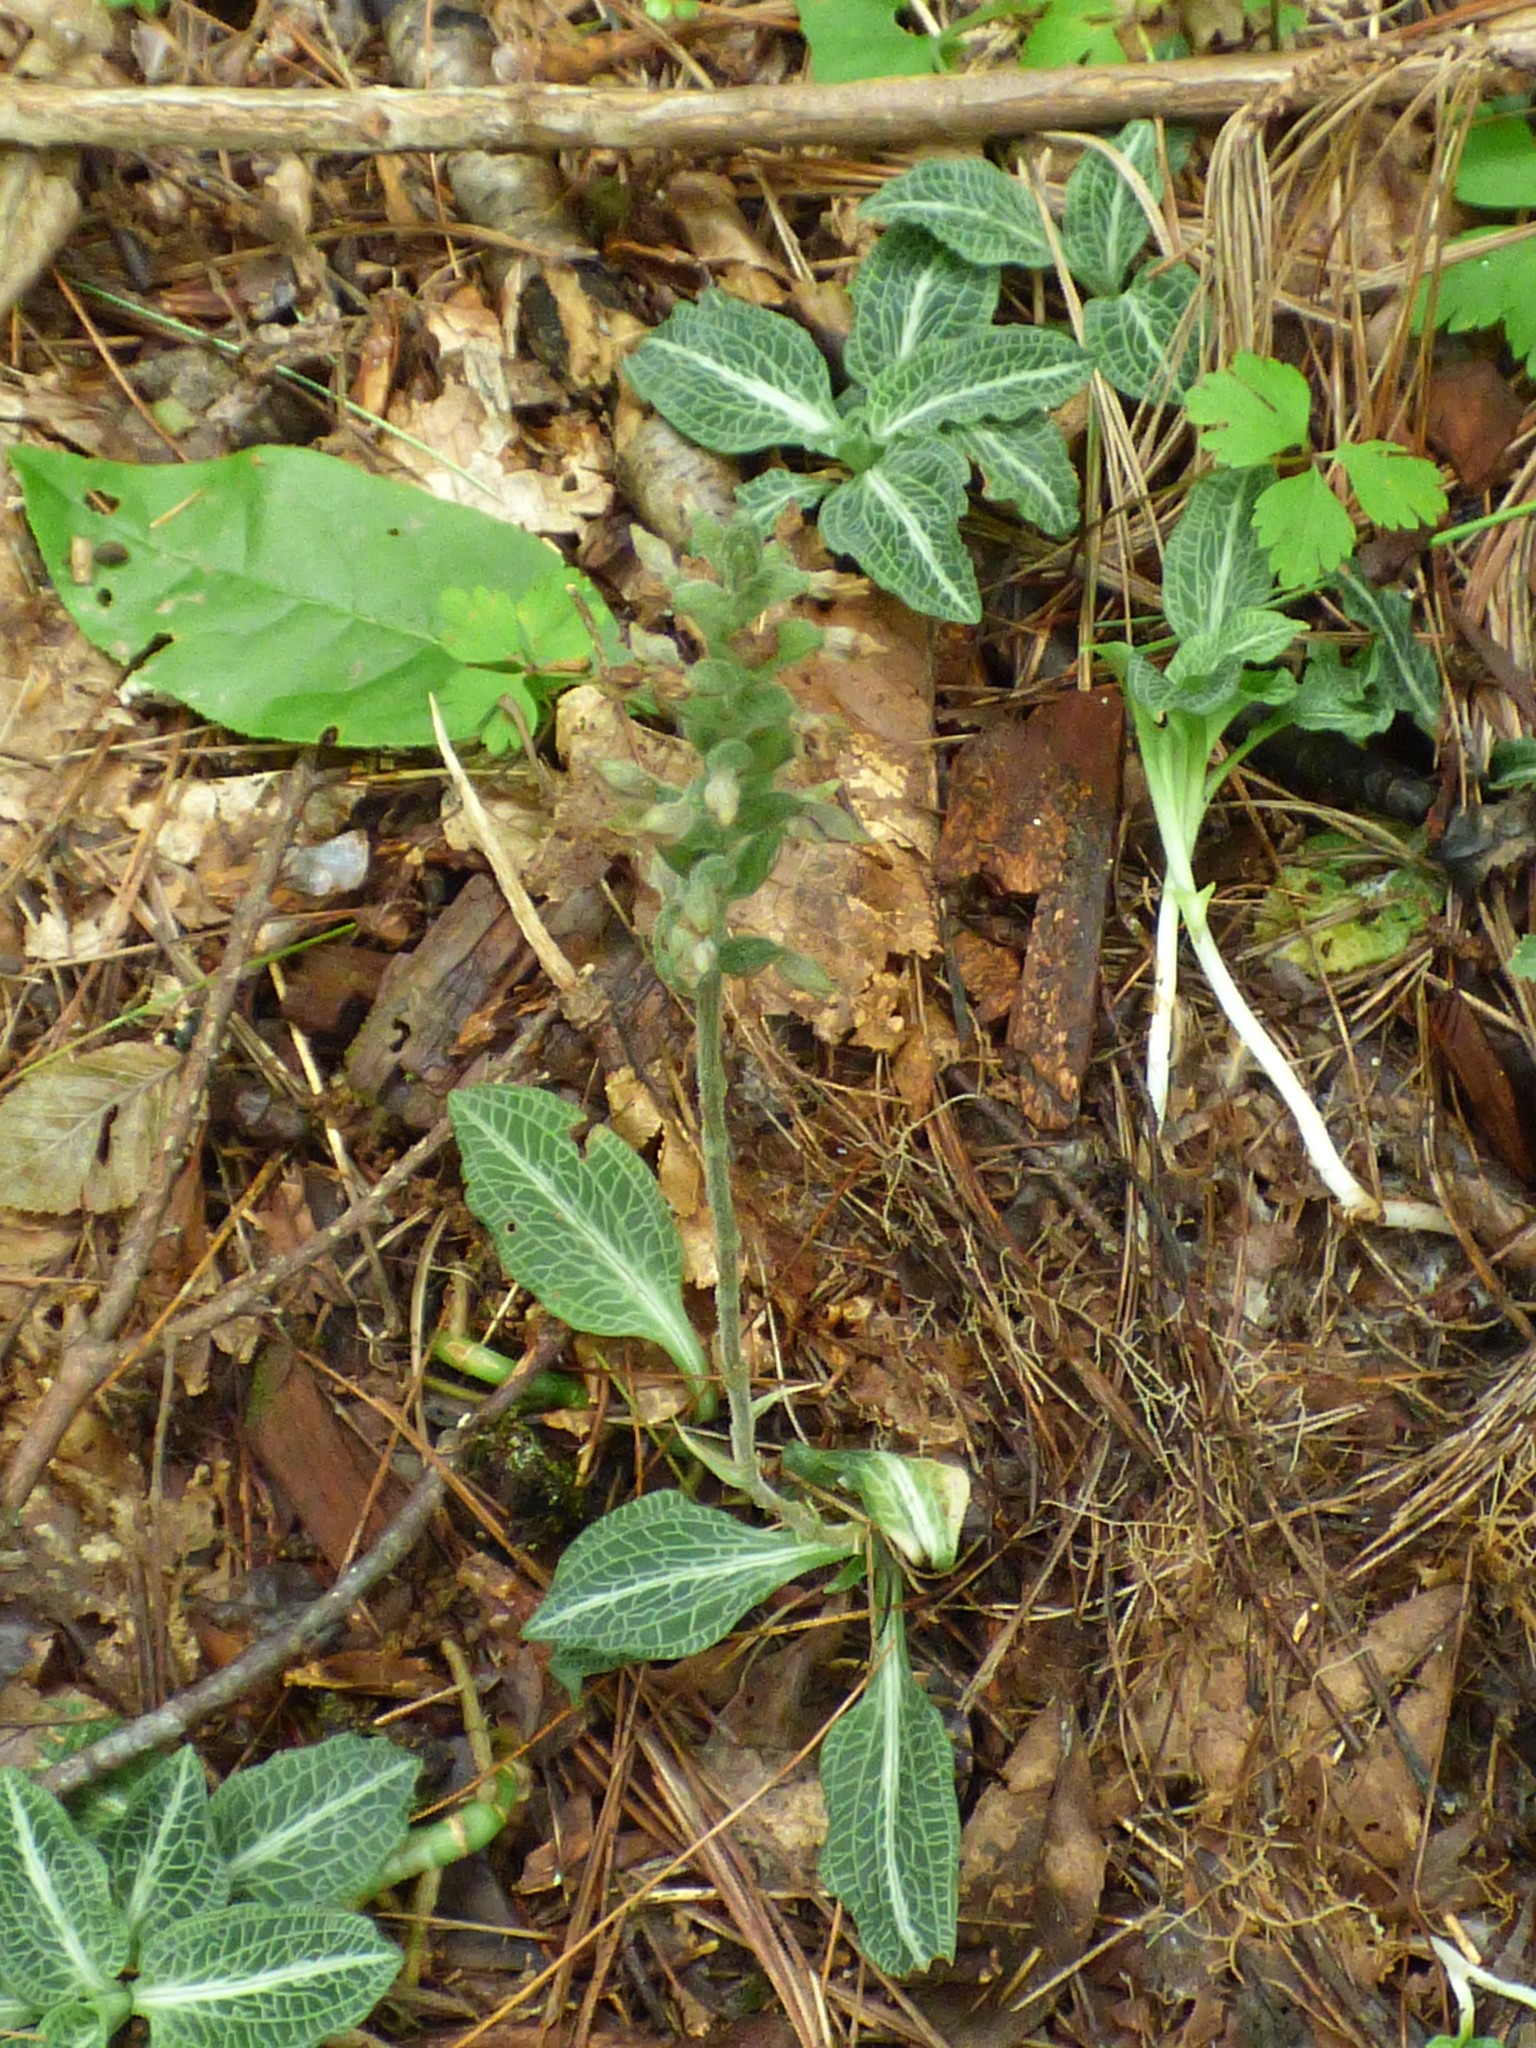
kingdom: Plantae
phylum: Tracheophyta
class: Liliopsida
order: Asparagales
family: Orchidaceae
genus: Goodyera
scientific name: Goodyera pubescens
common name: Downy rattlesnake-plantain
